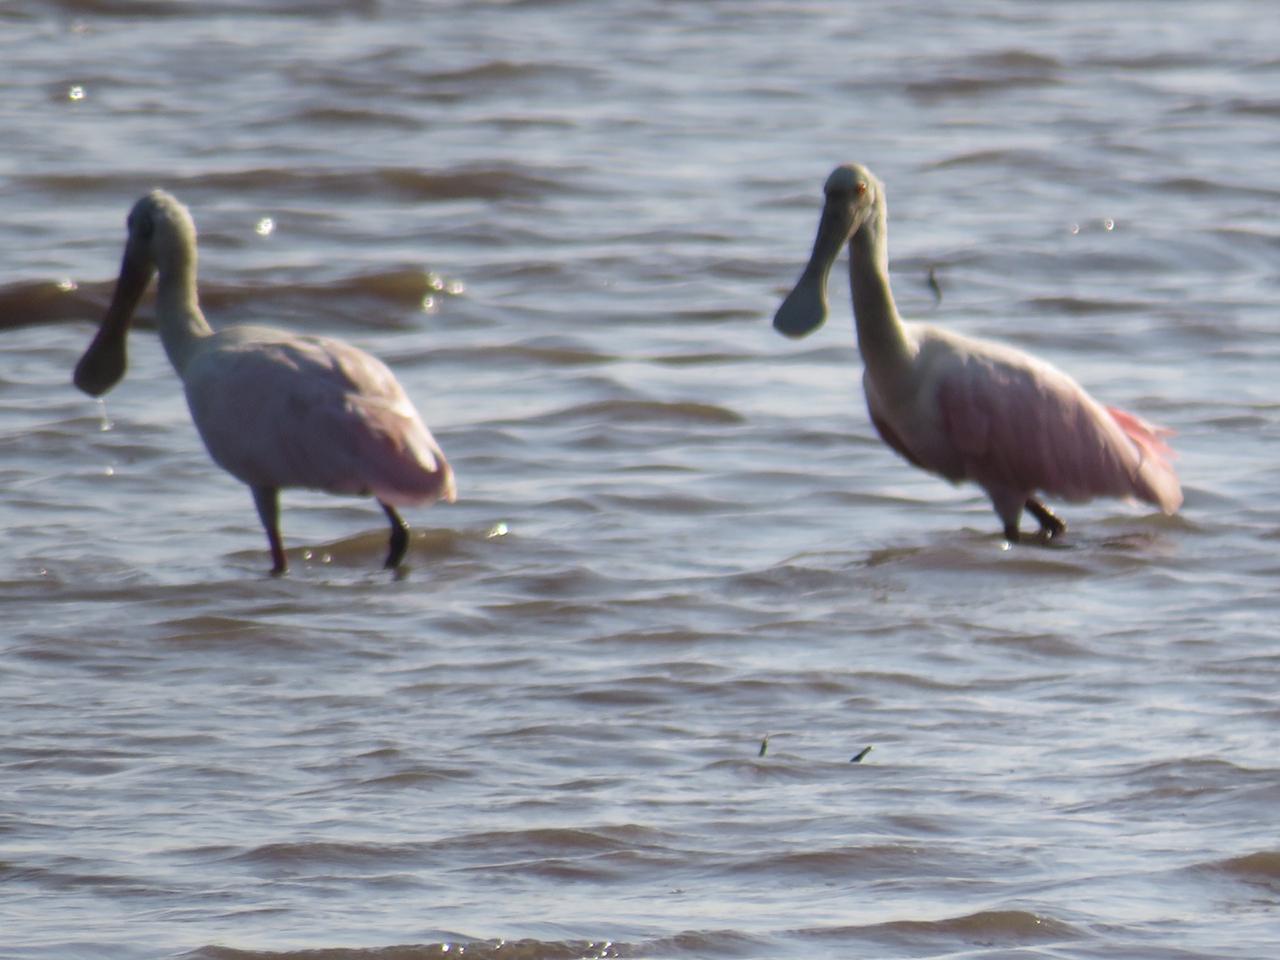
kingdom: Animalia
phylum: Chordata
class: Aves
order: Pelecaniformes
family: Threskiornithidae
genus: Platalea
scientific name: Platalea ajaja
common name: Roseate spoonbill
